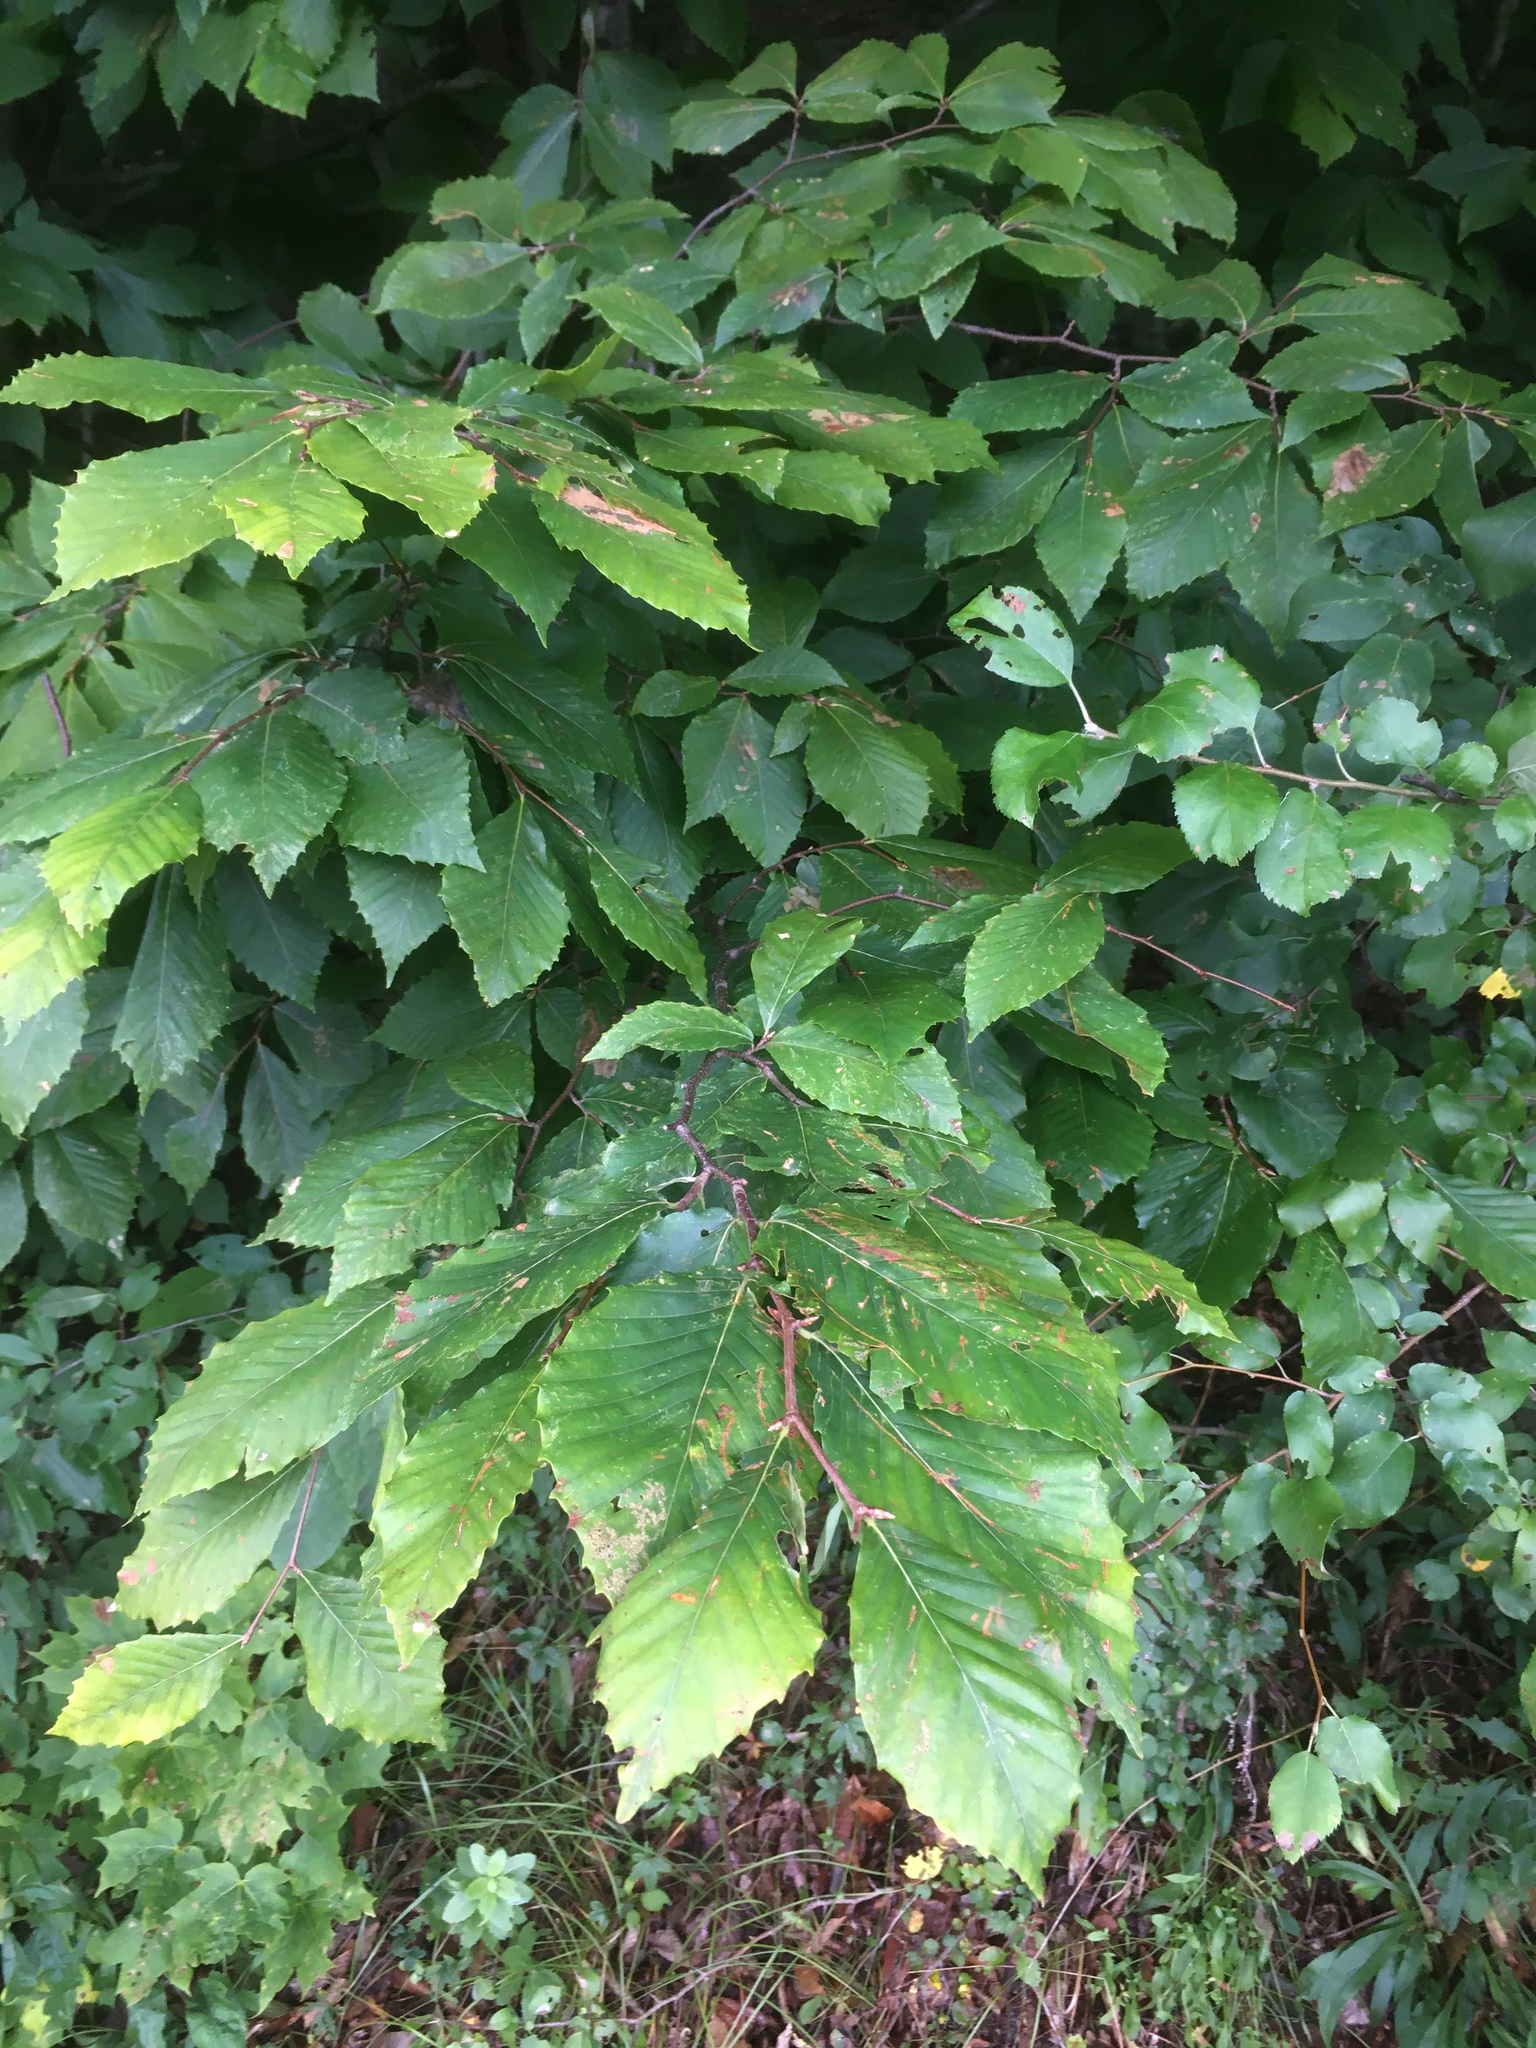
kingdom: Plantae
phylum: Tracheophyta
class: Magnoliopsida
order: Fagales
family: Fagaceae
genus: Fagus
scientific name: Fagus grandifolia
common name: American beech
